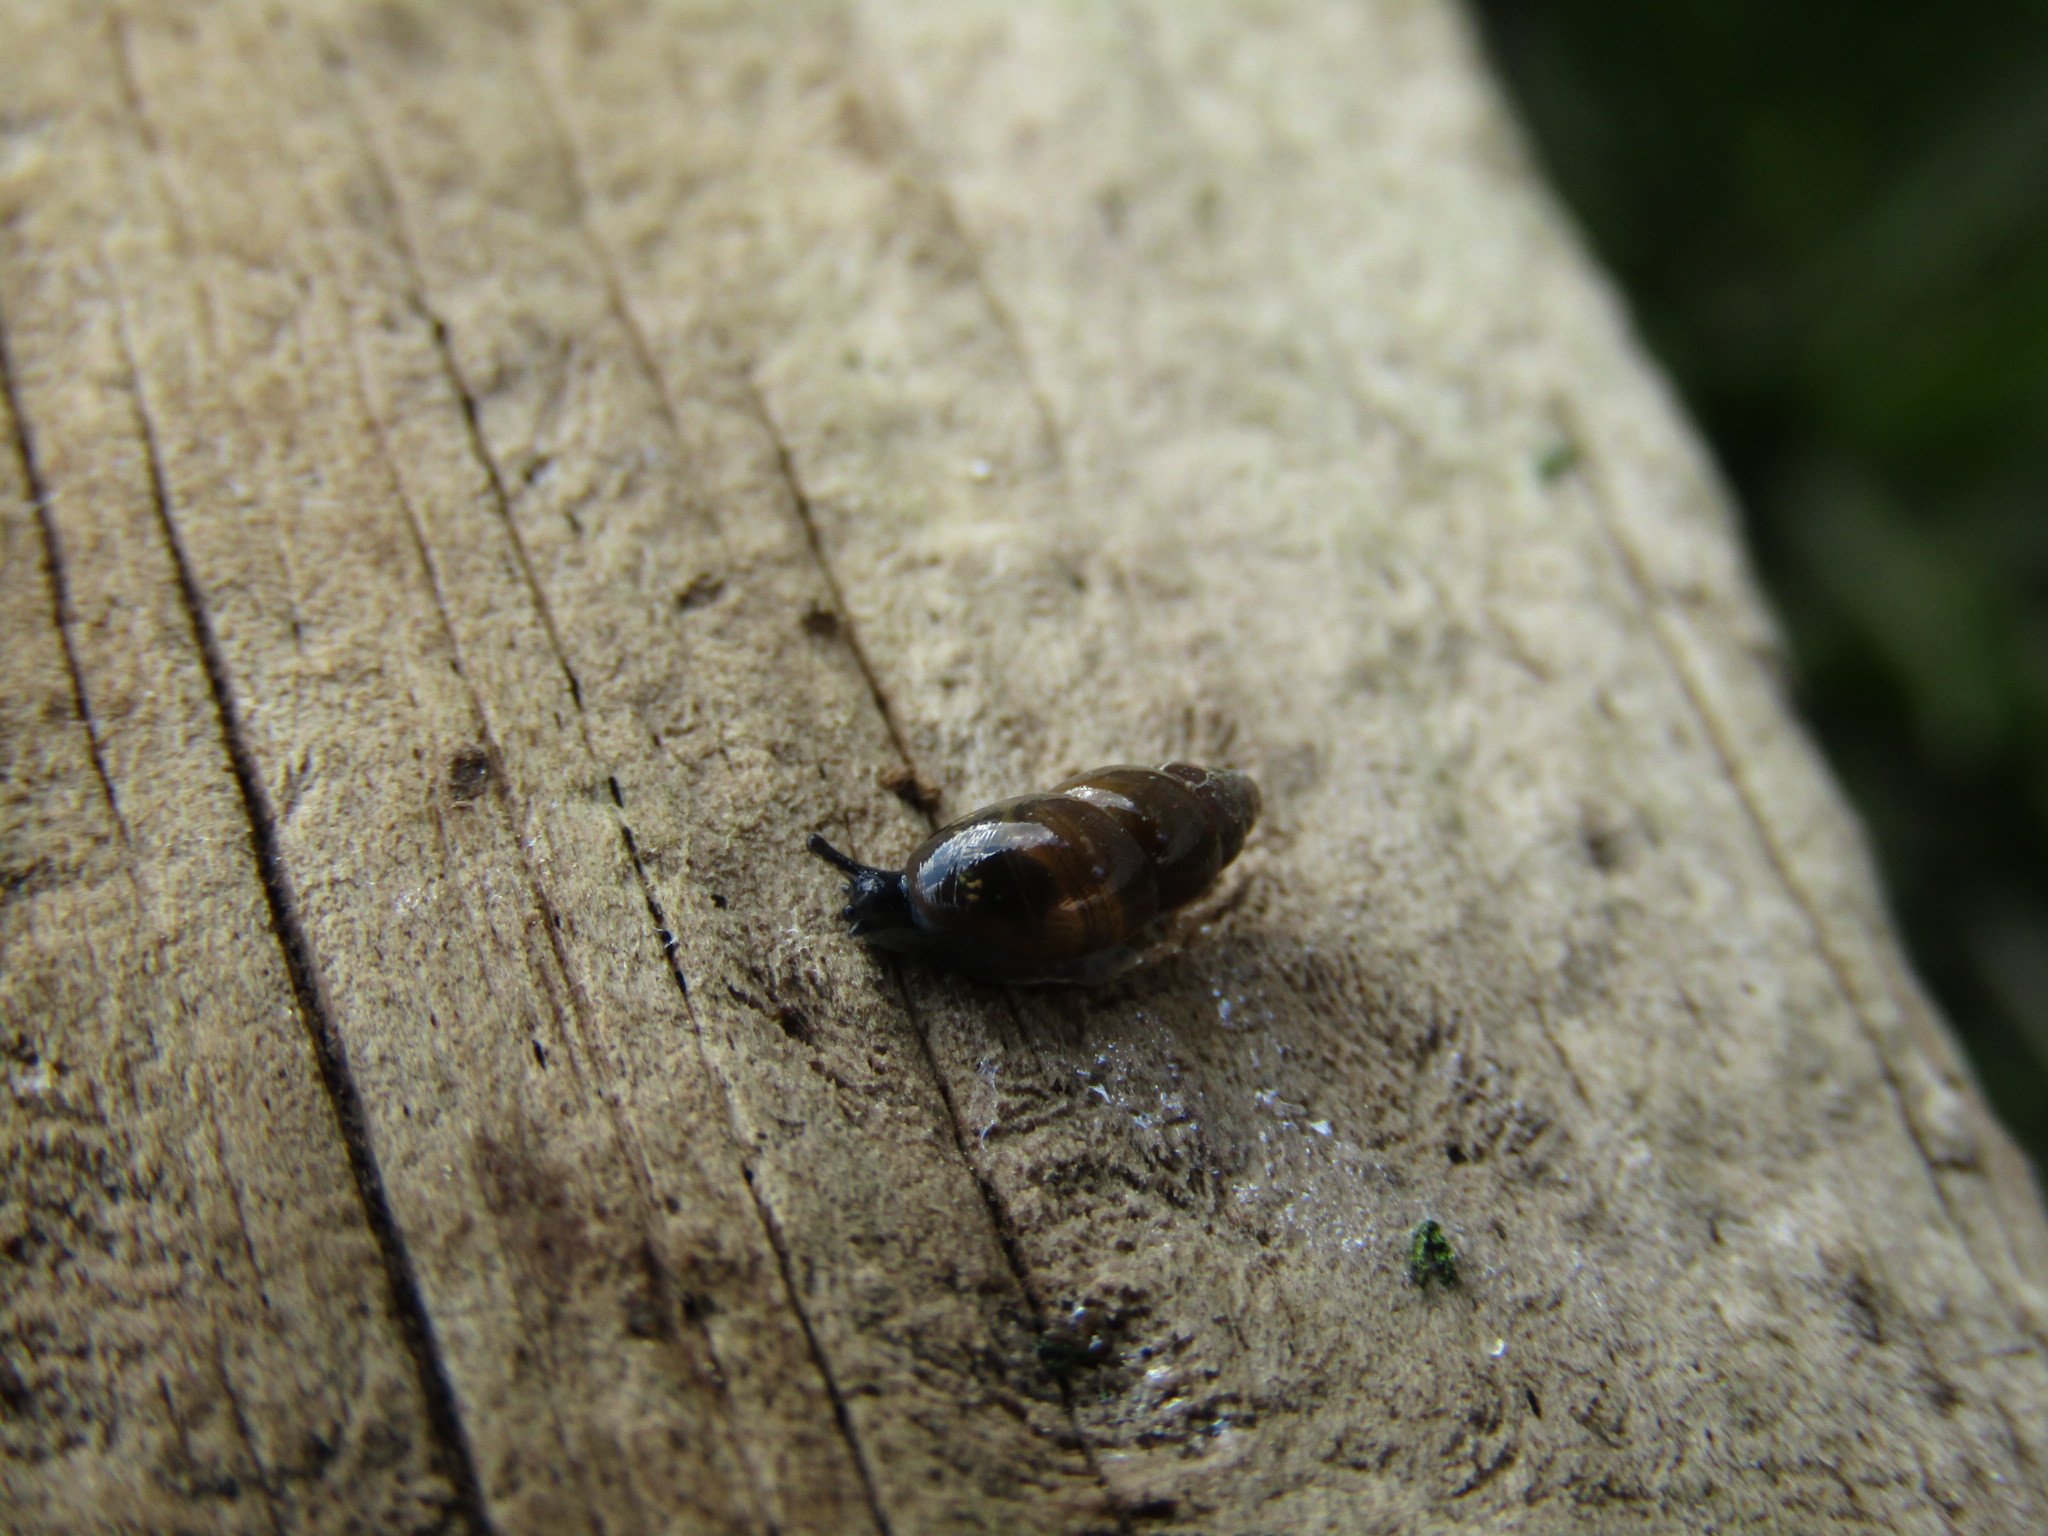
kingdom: Animalia
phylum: Mollusca
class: Gastropoda
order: Stylommatophora
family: Cochlicopidae
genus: Cochlicopa
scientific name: Cochlicopa lubrica
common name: Glossy pillar snail
